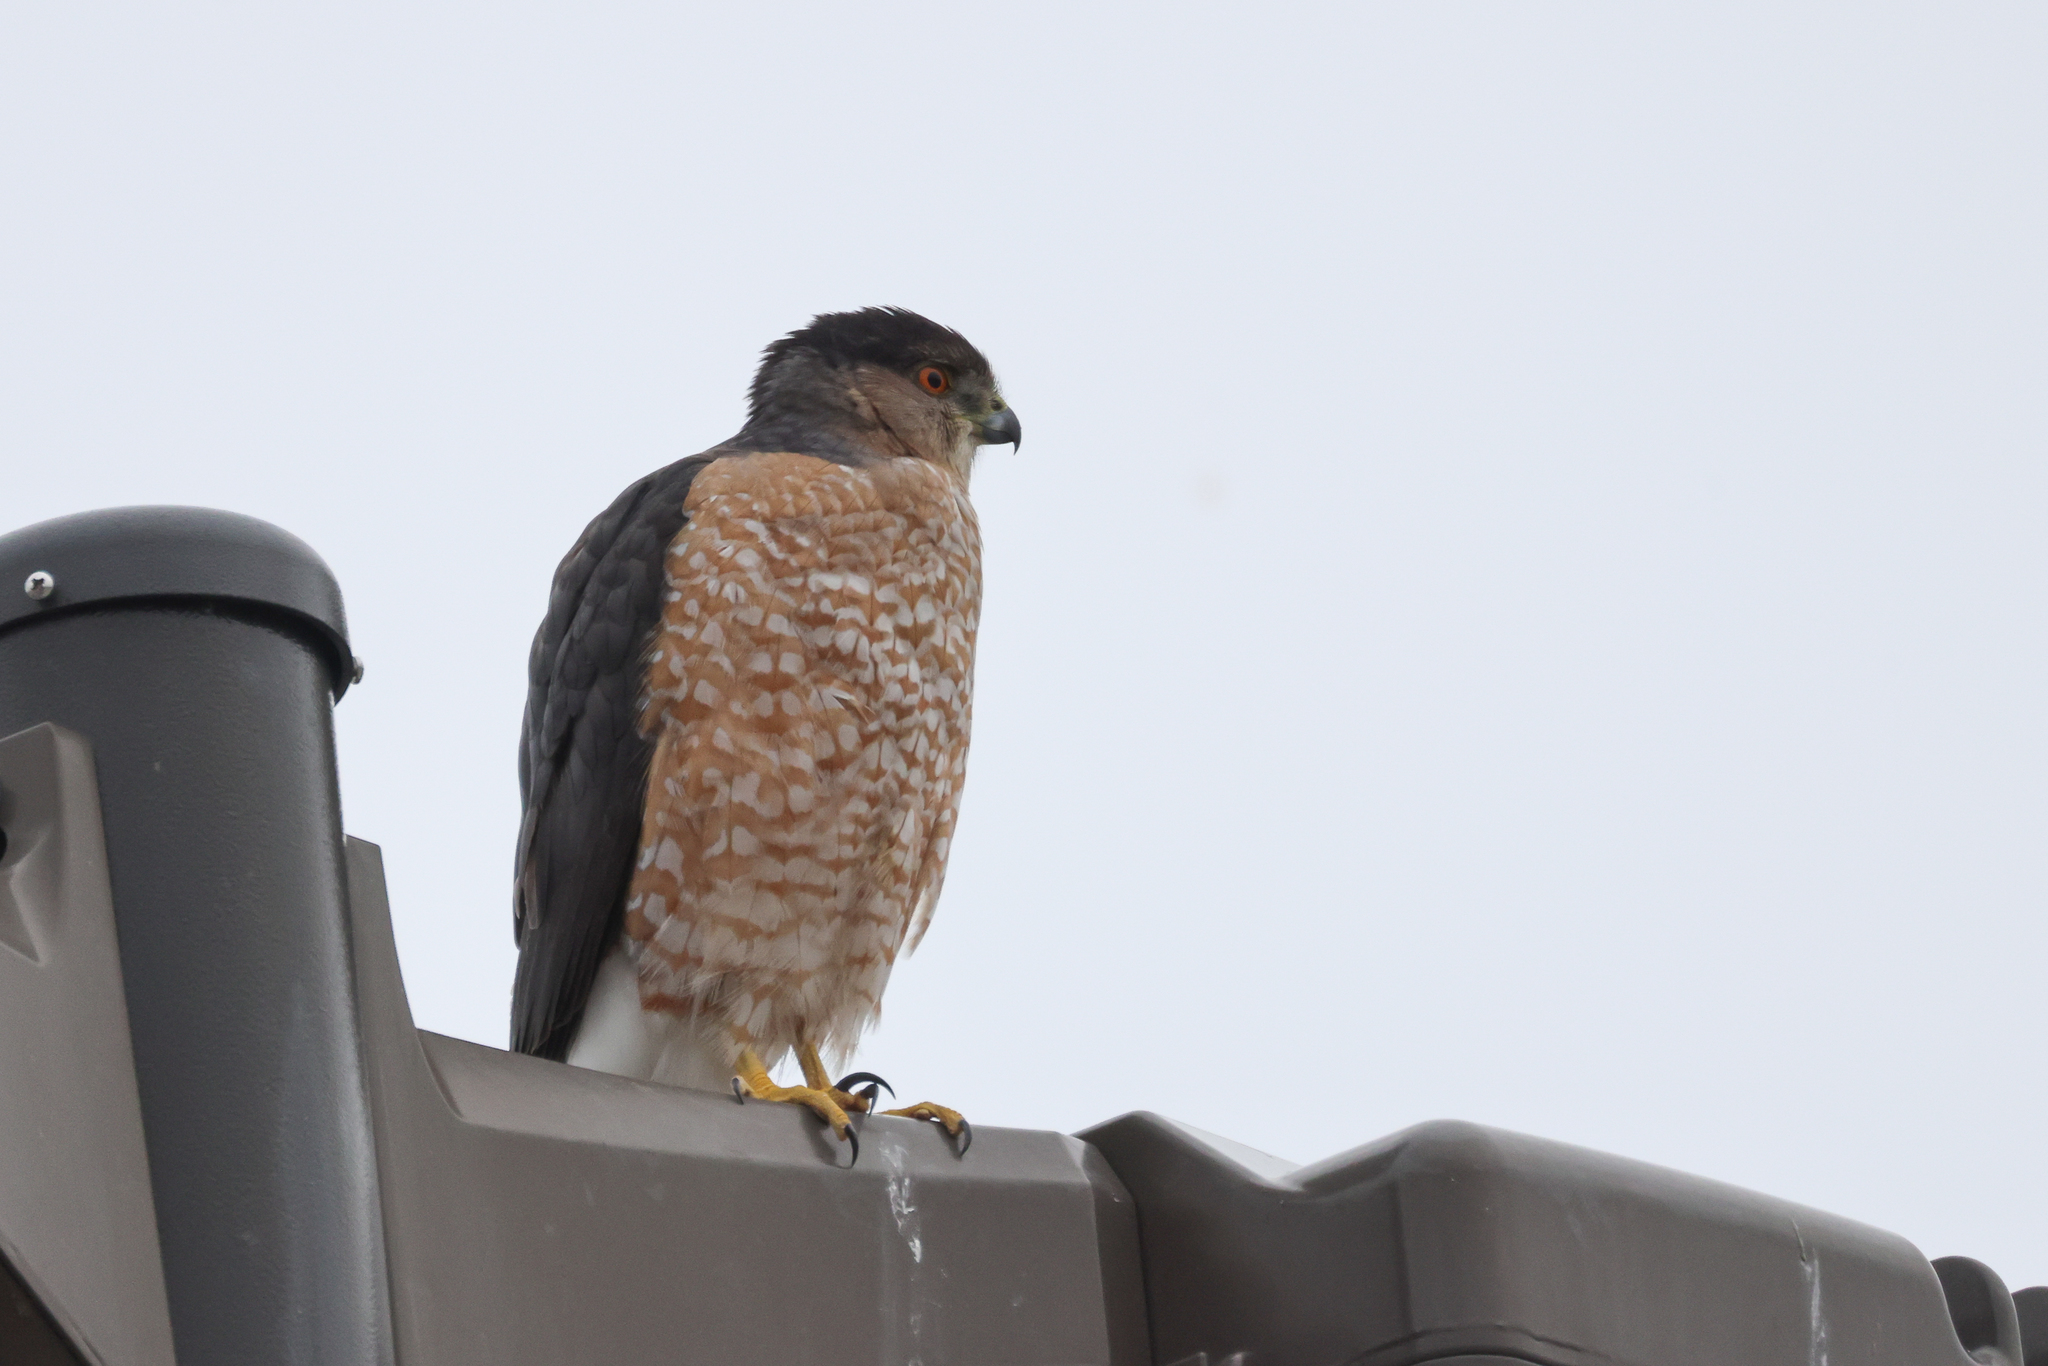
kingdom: Animalia
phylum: Chordata
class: Aves
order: Accipitriformes
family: Accipitridae
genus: Accipiter
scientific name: Accipiter cooperii
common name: Cooper's hawk
